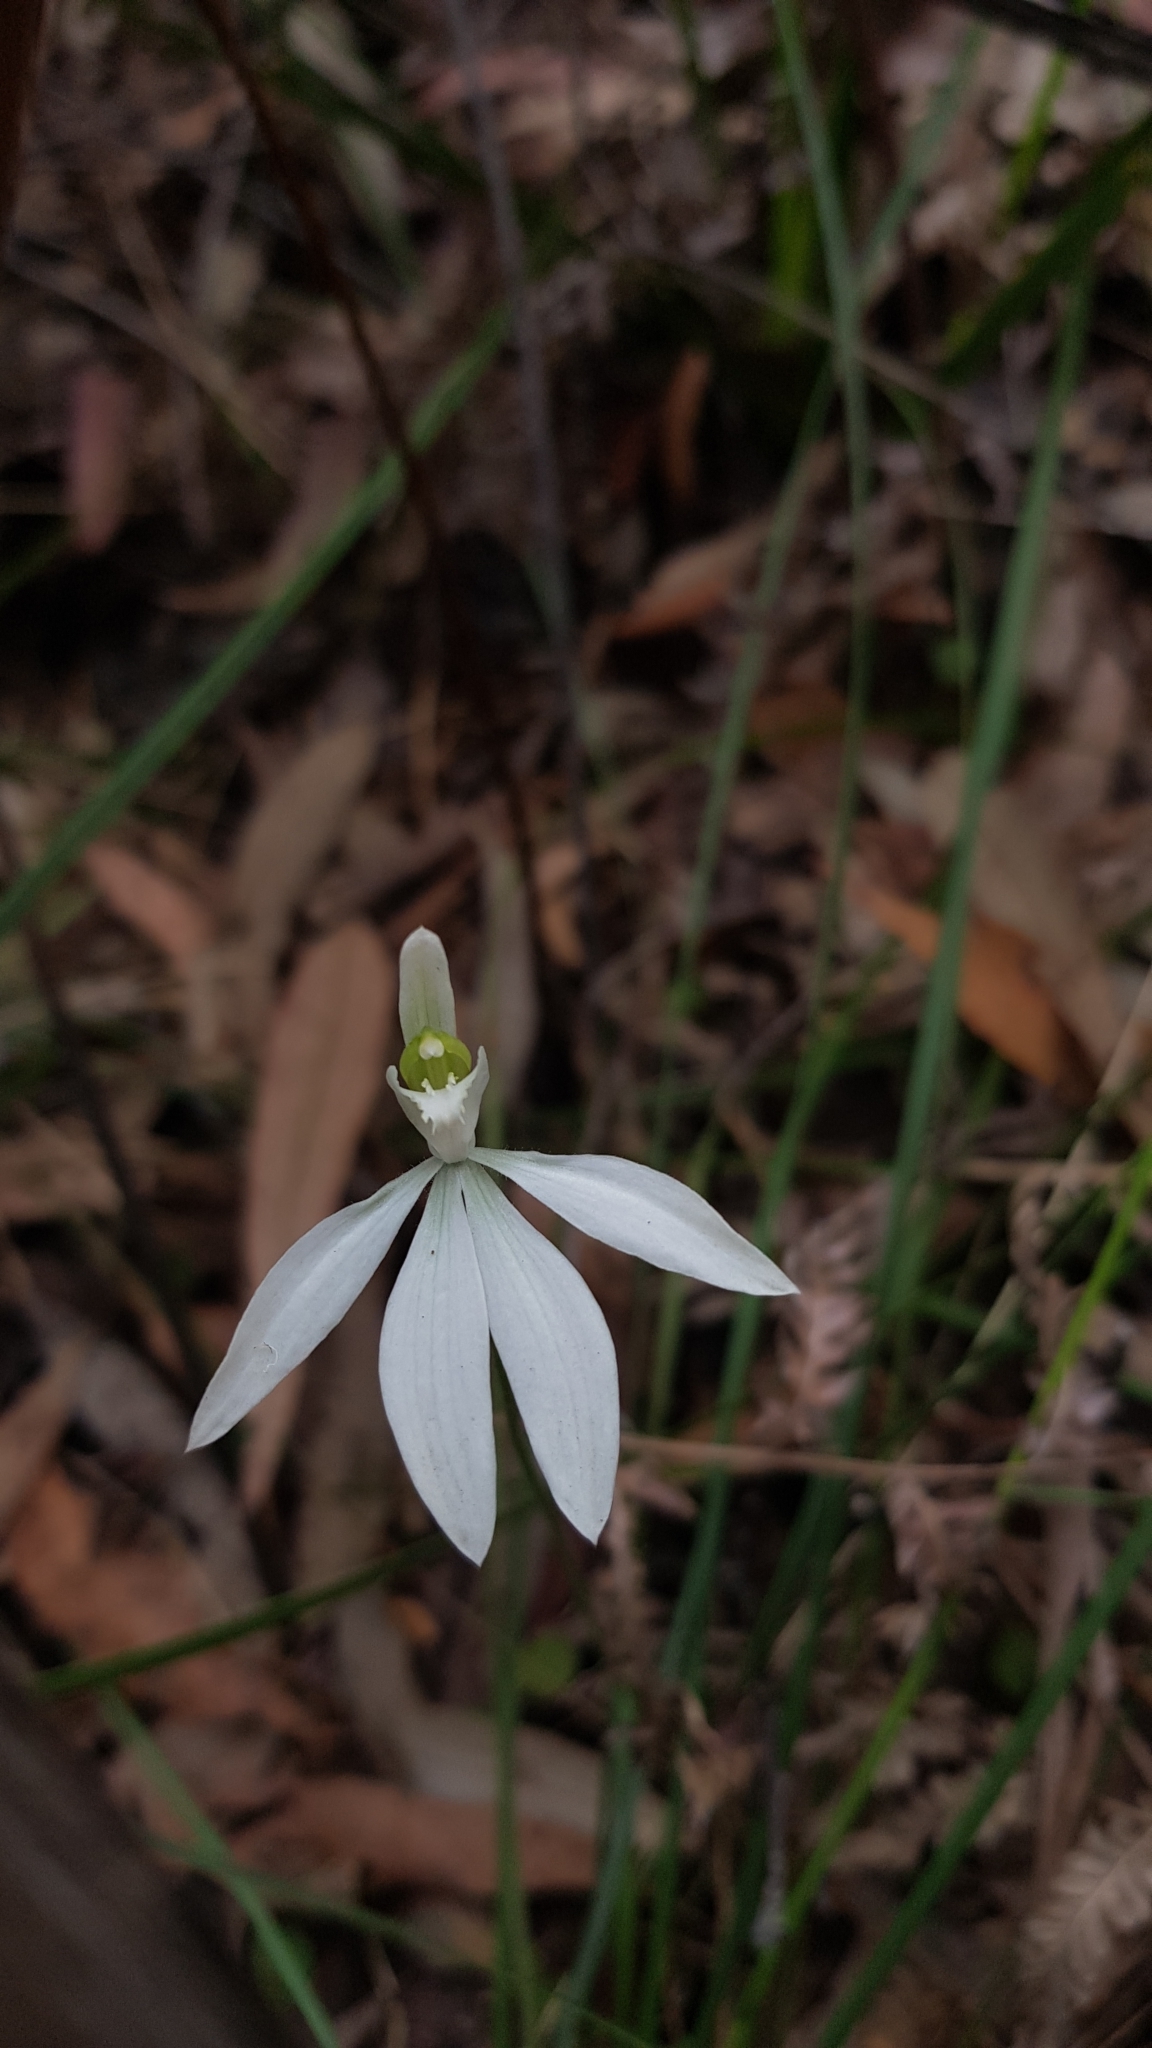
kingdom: Plantae
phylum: Tracheophyta
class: Liliopsida
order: Asparagales
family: Orchidaceae
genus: Caladenia
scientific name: Caladenia catenata
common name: White caladenia
